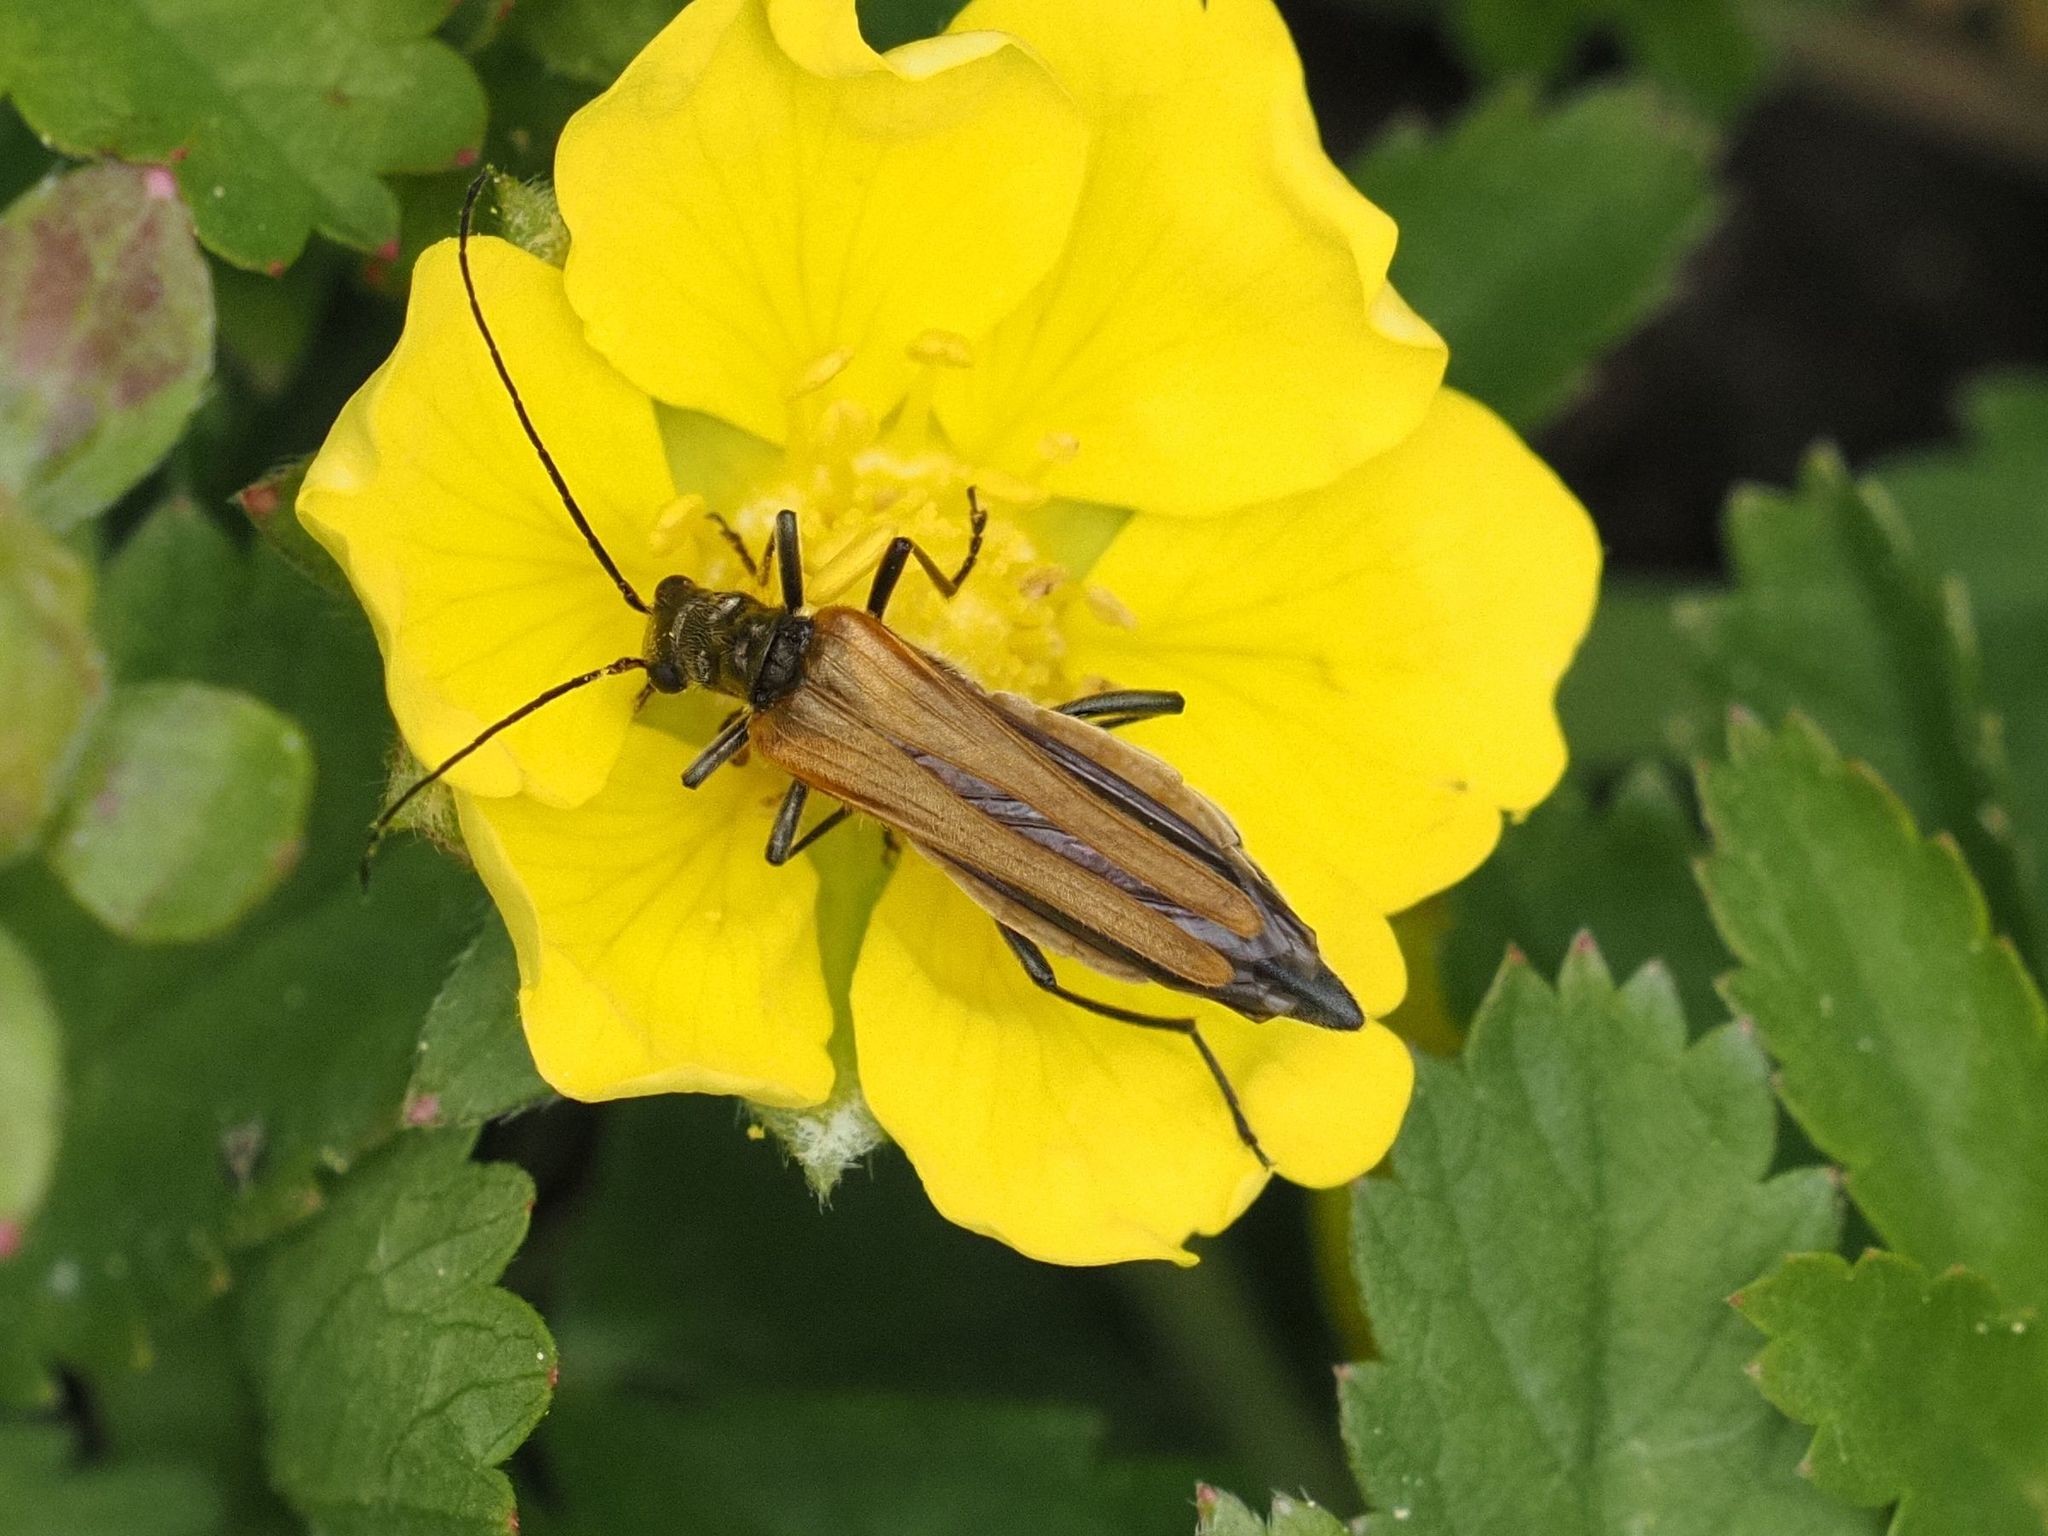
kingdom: Animalia
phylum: Arthropoda
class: Insecta
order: Coleoptera
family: Oedemeridae
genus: Oedemera
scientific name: Oedemera femorata
